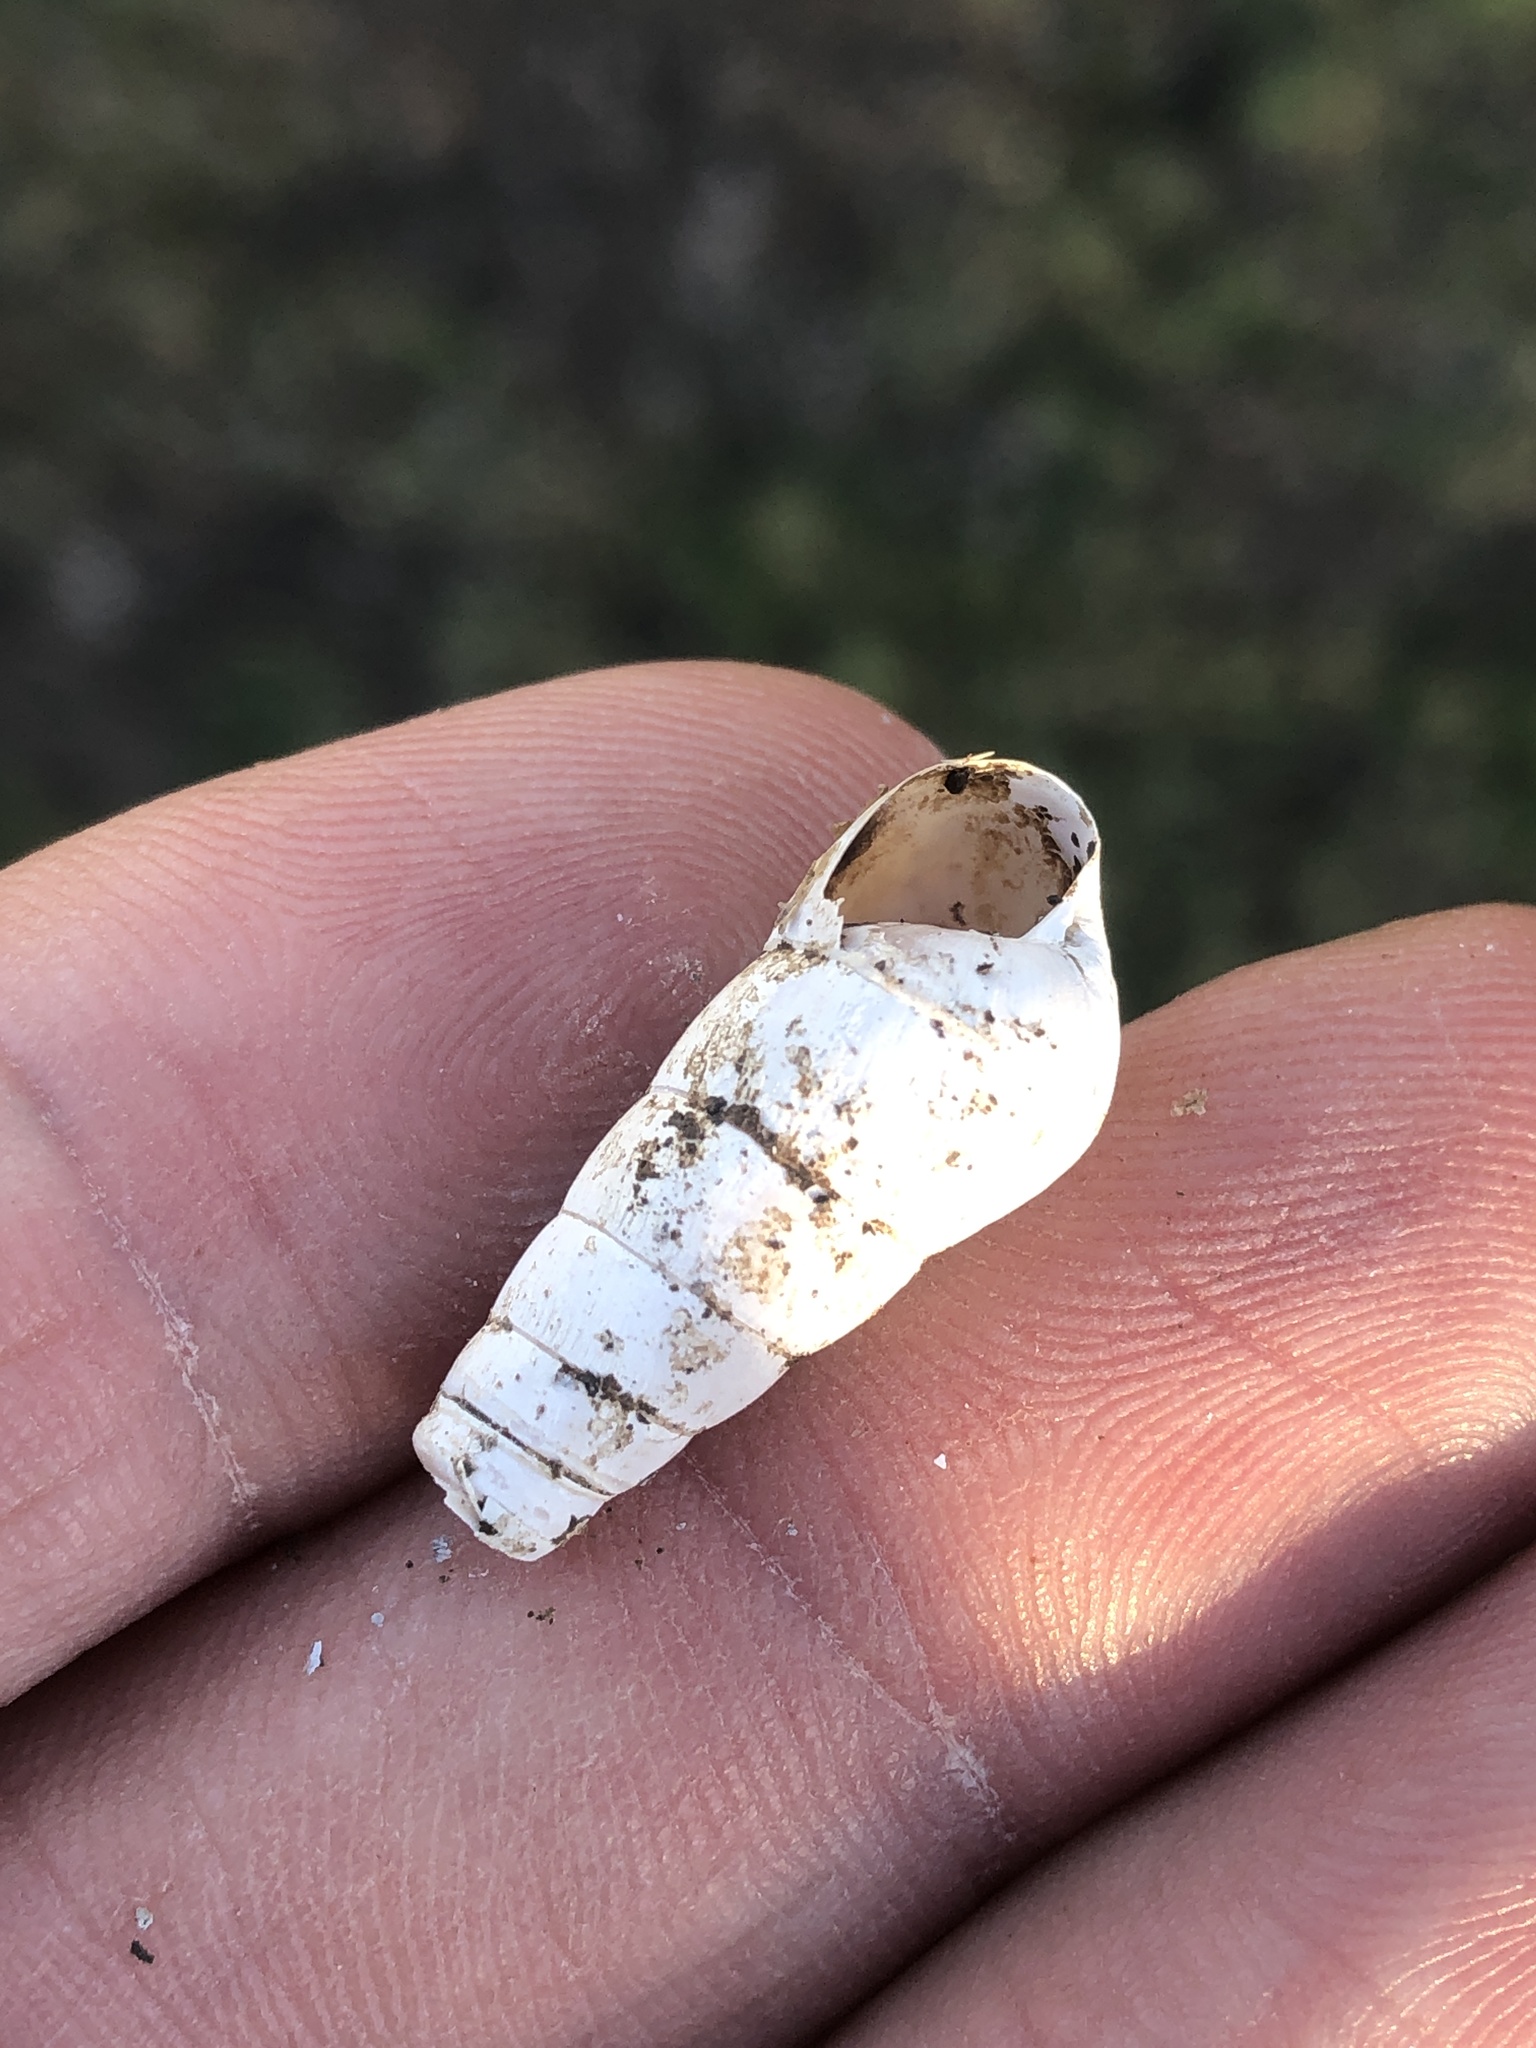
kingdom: Animalia
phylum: Mollusca
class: Gastropoda
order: Stylommatophora
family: Achatinidae
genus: Rumina
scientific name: Rumina decollata
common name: Decollate snail
